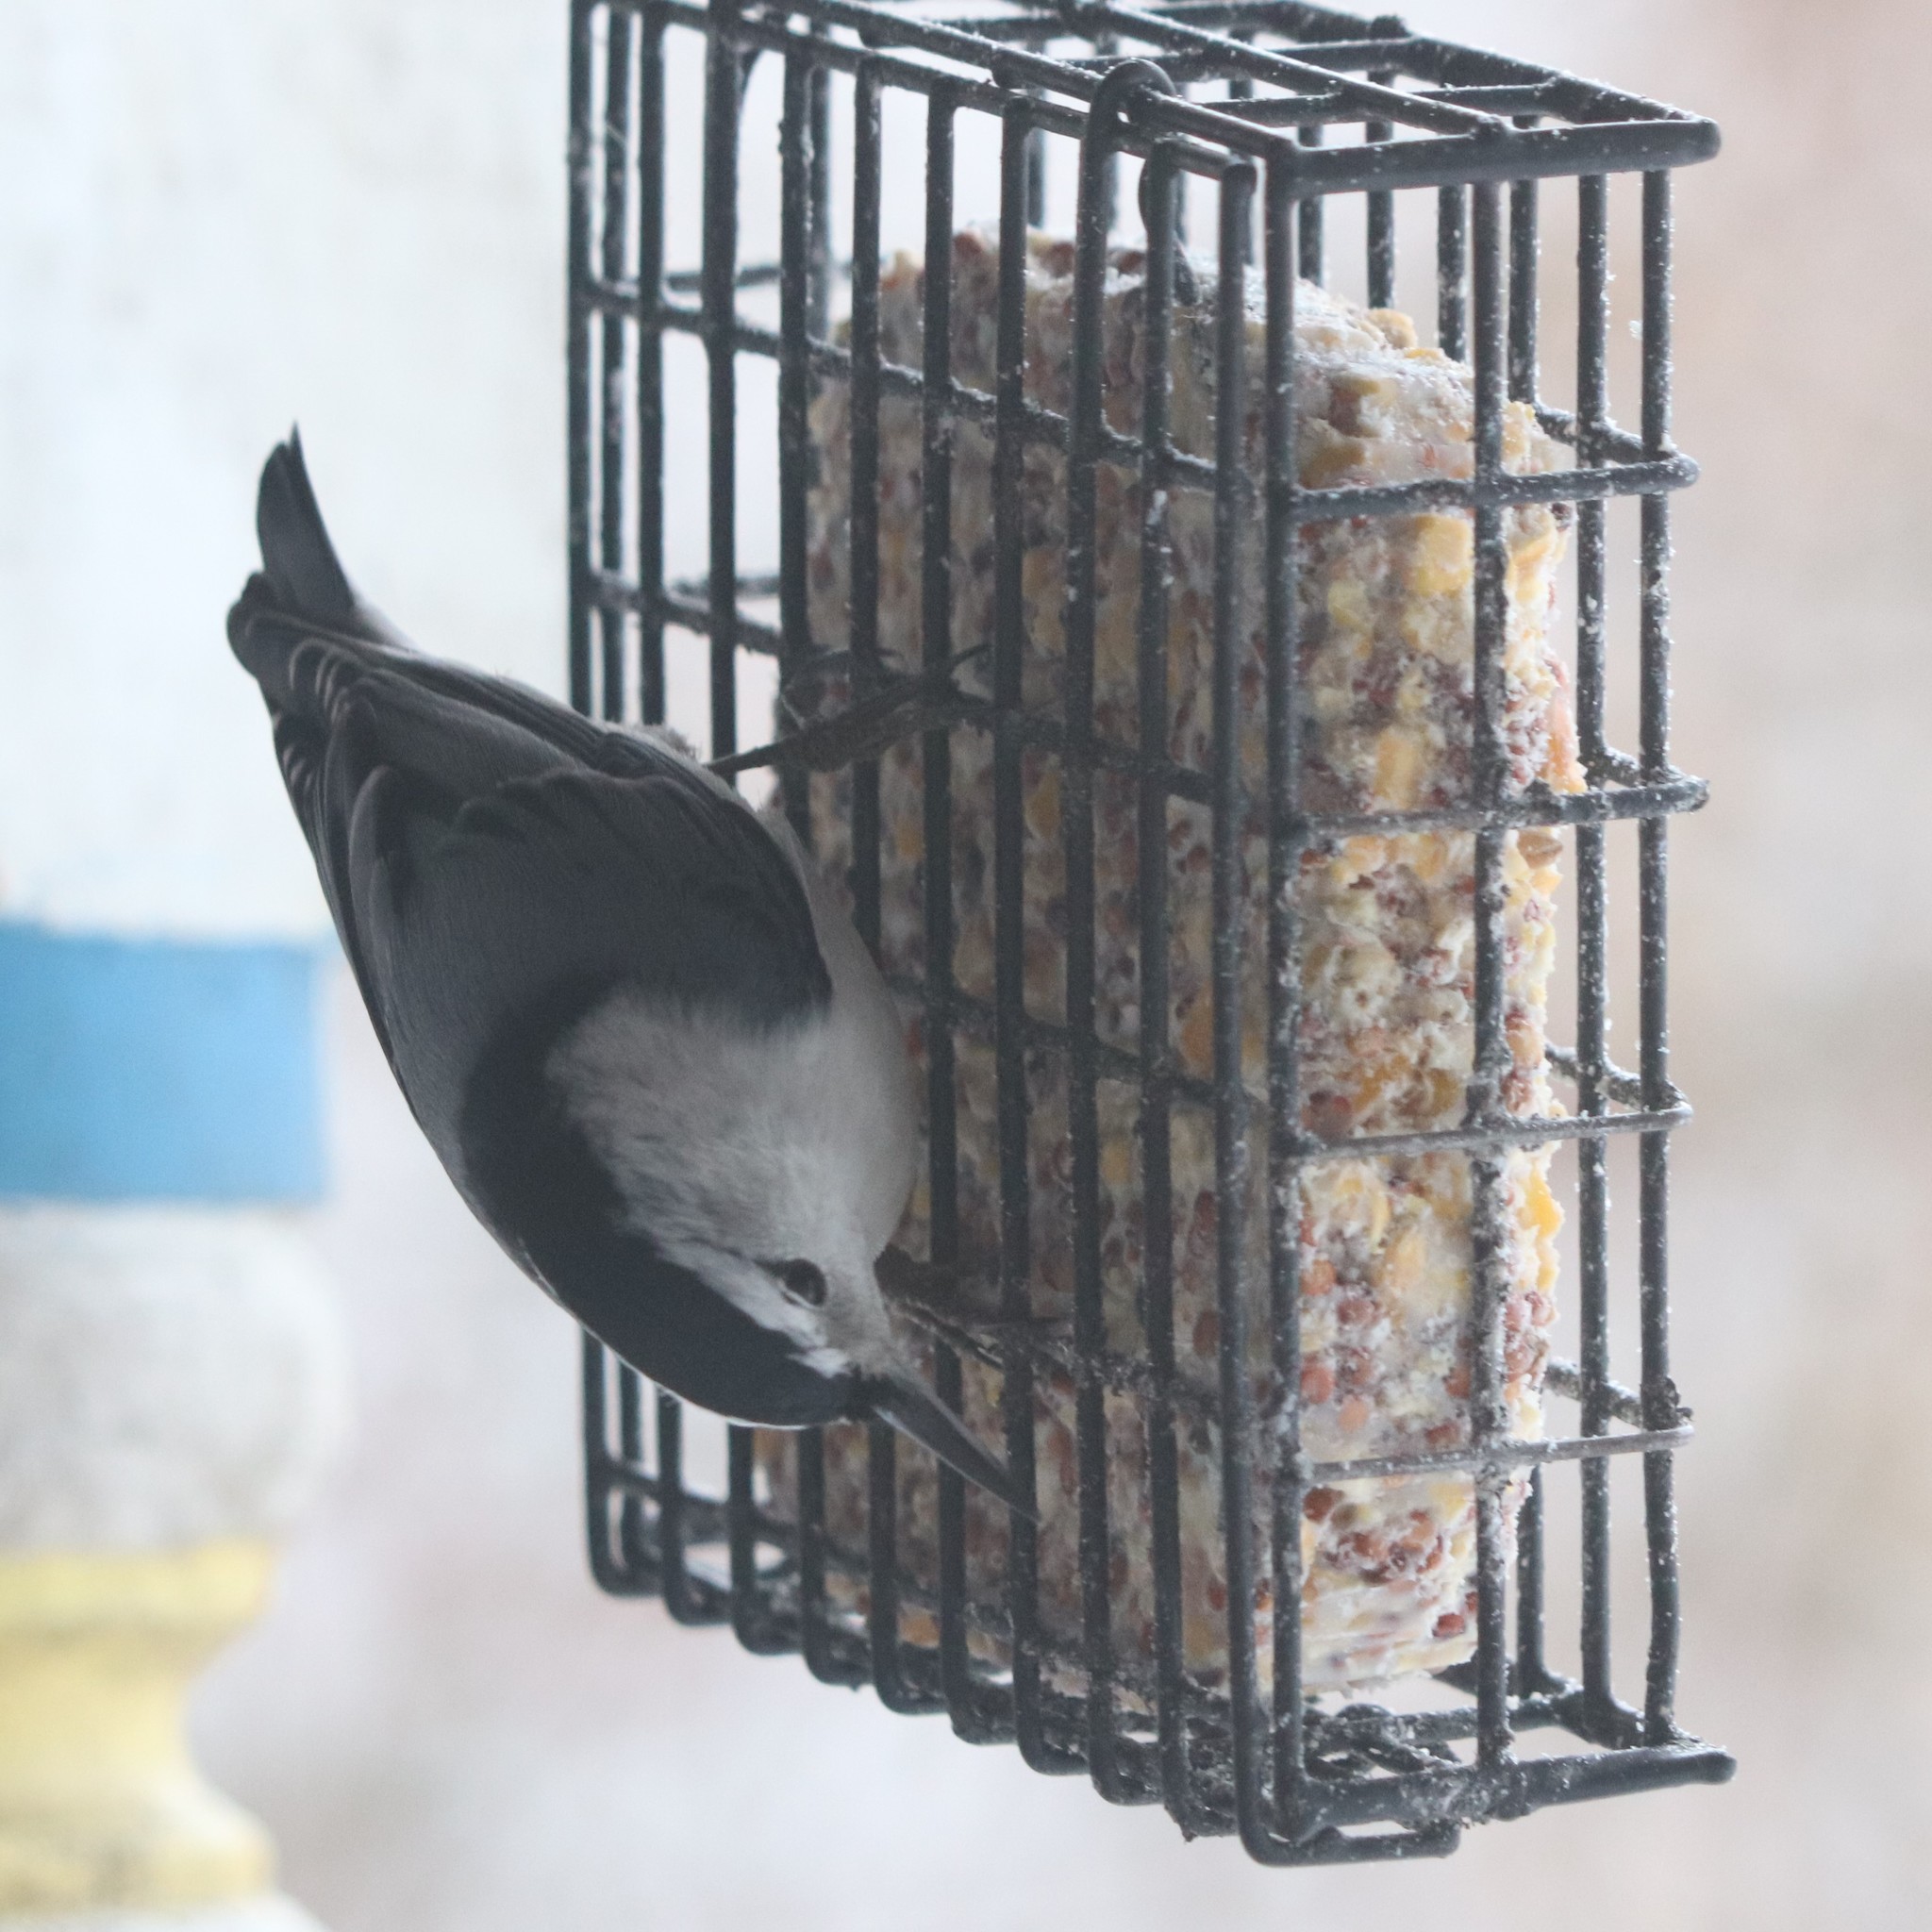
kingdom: Animalia
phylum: Chordata
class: Aves
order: Passeriformes
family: Sittidae
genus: Sitta
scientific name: Sitta carolinensis
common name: White-breasted nuthatch
